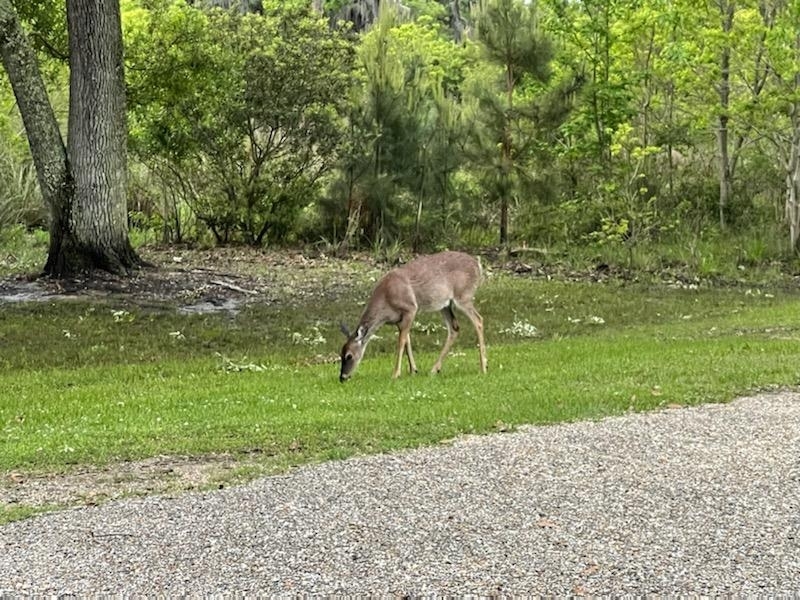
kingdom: Animalia
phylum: Chordata
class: Mammalia
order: Artiodactyla
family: Cervidae
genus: Odocoileus
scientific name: Odocoileus virginianus
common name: White-tailed deer
